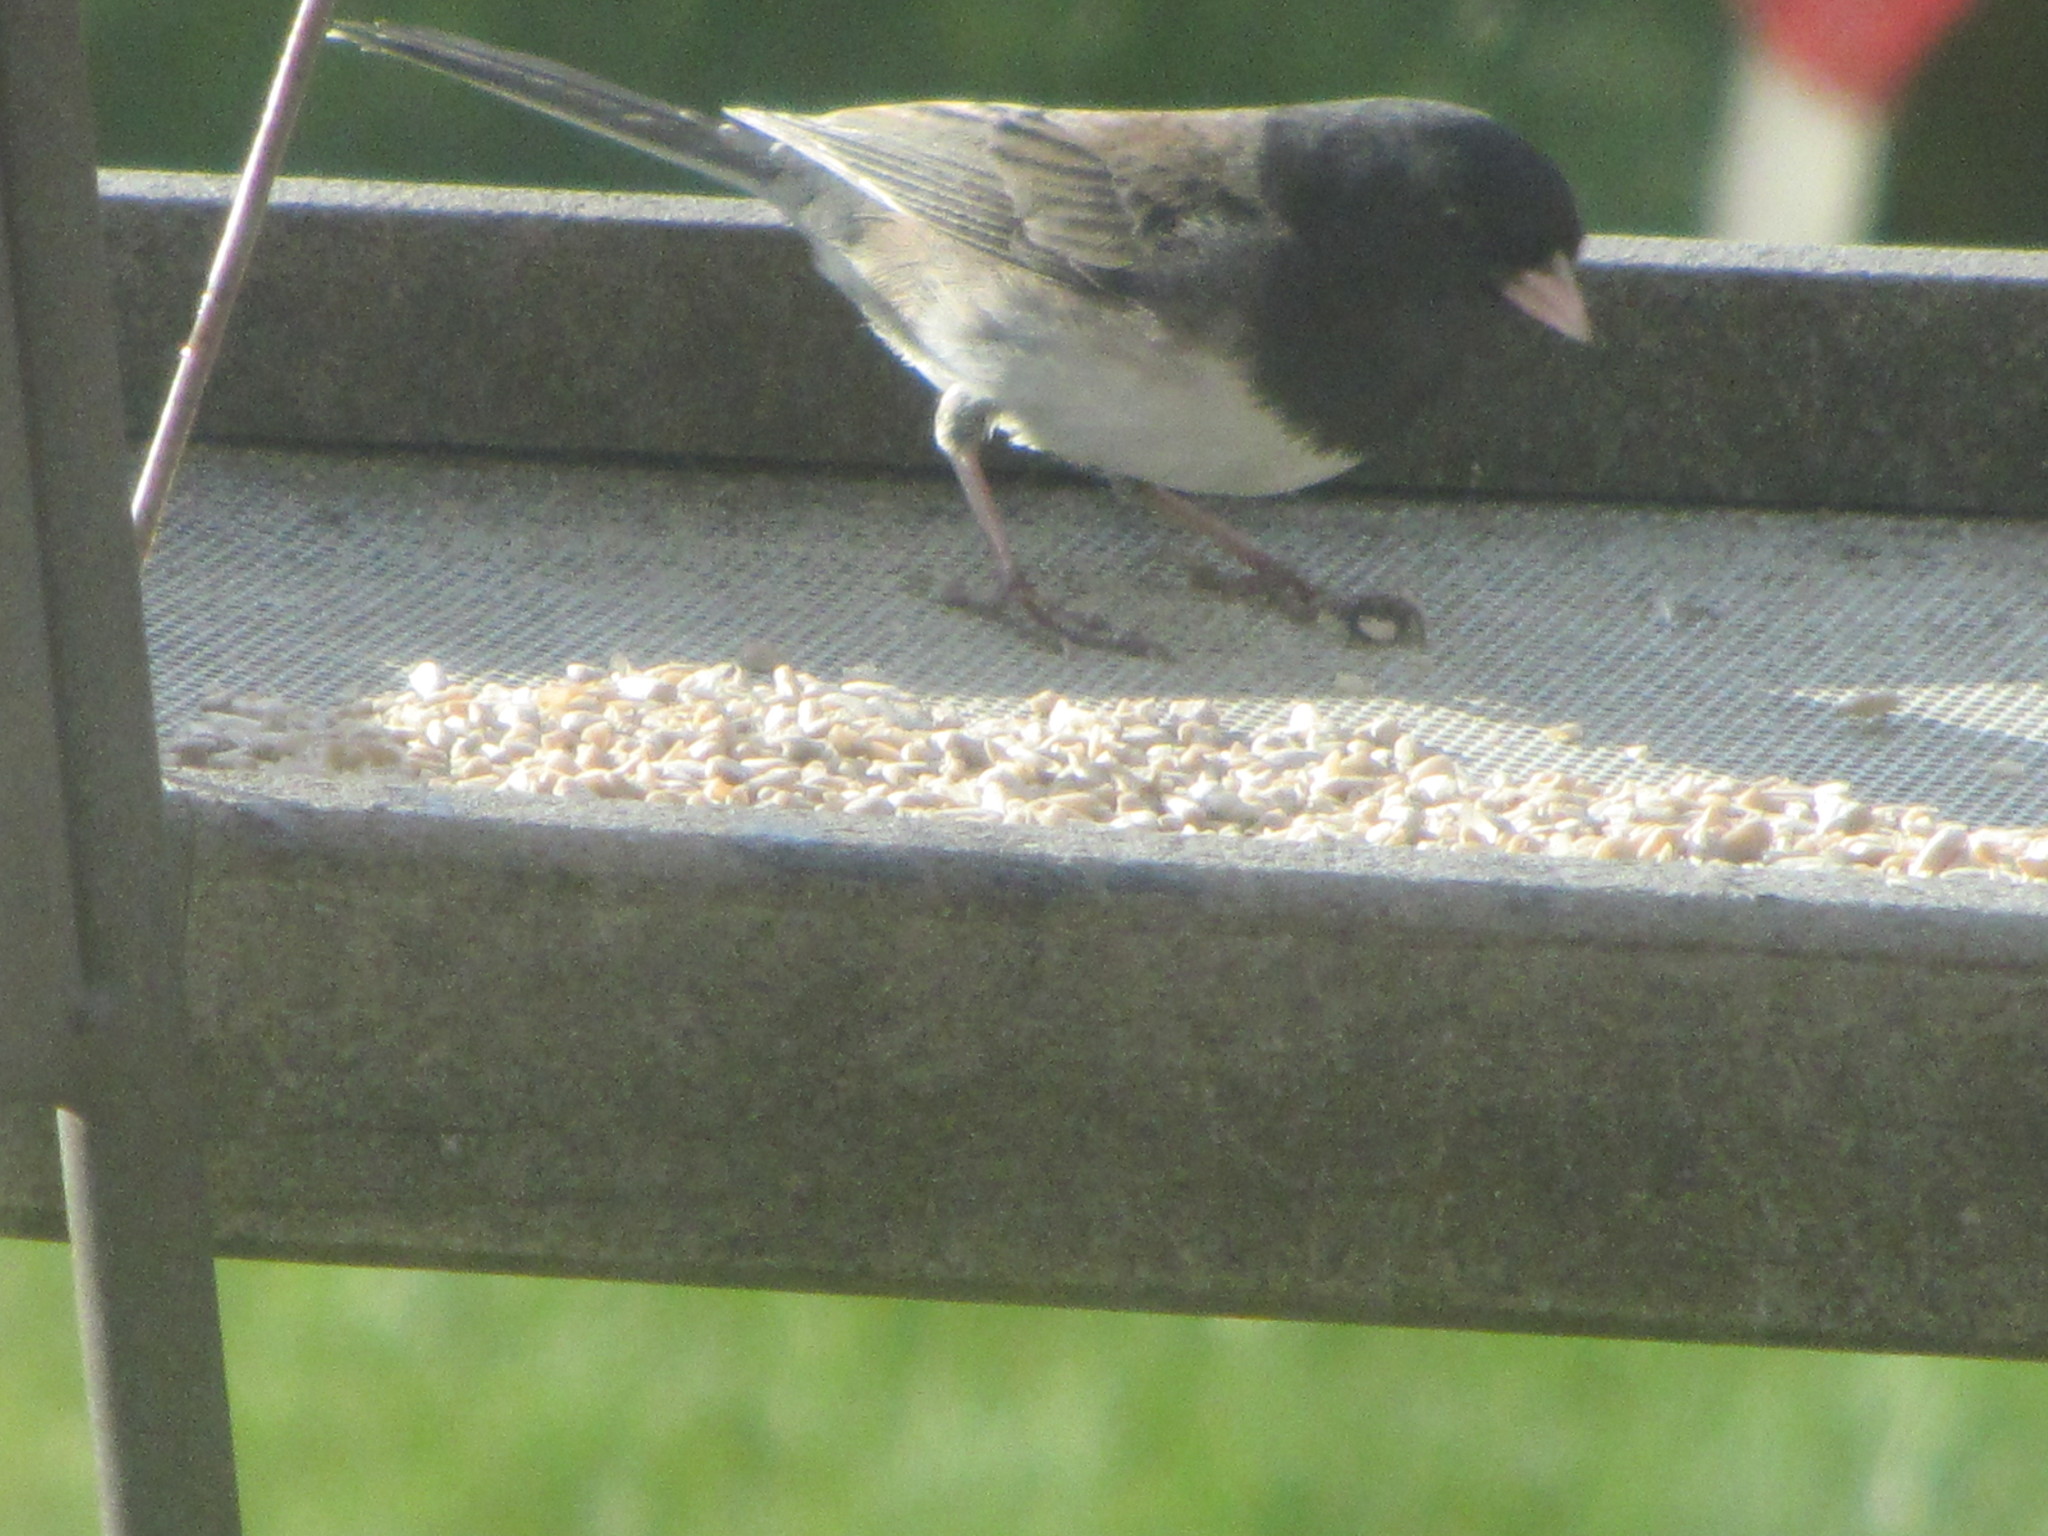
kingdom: Animalia
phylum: Chordata
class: Aves
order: Passeriformes
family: Passerellidae
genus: Junco
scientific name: Junco hyemalis
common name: Dark-eyed junco
